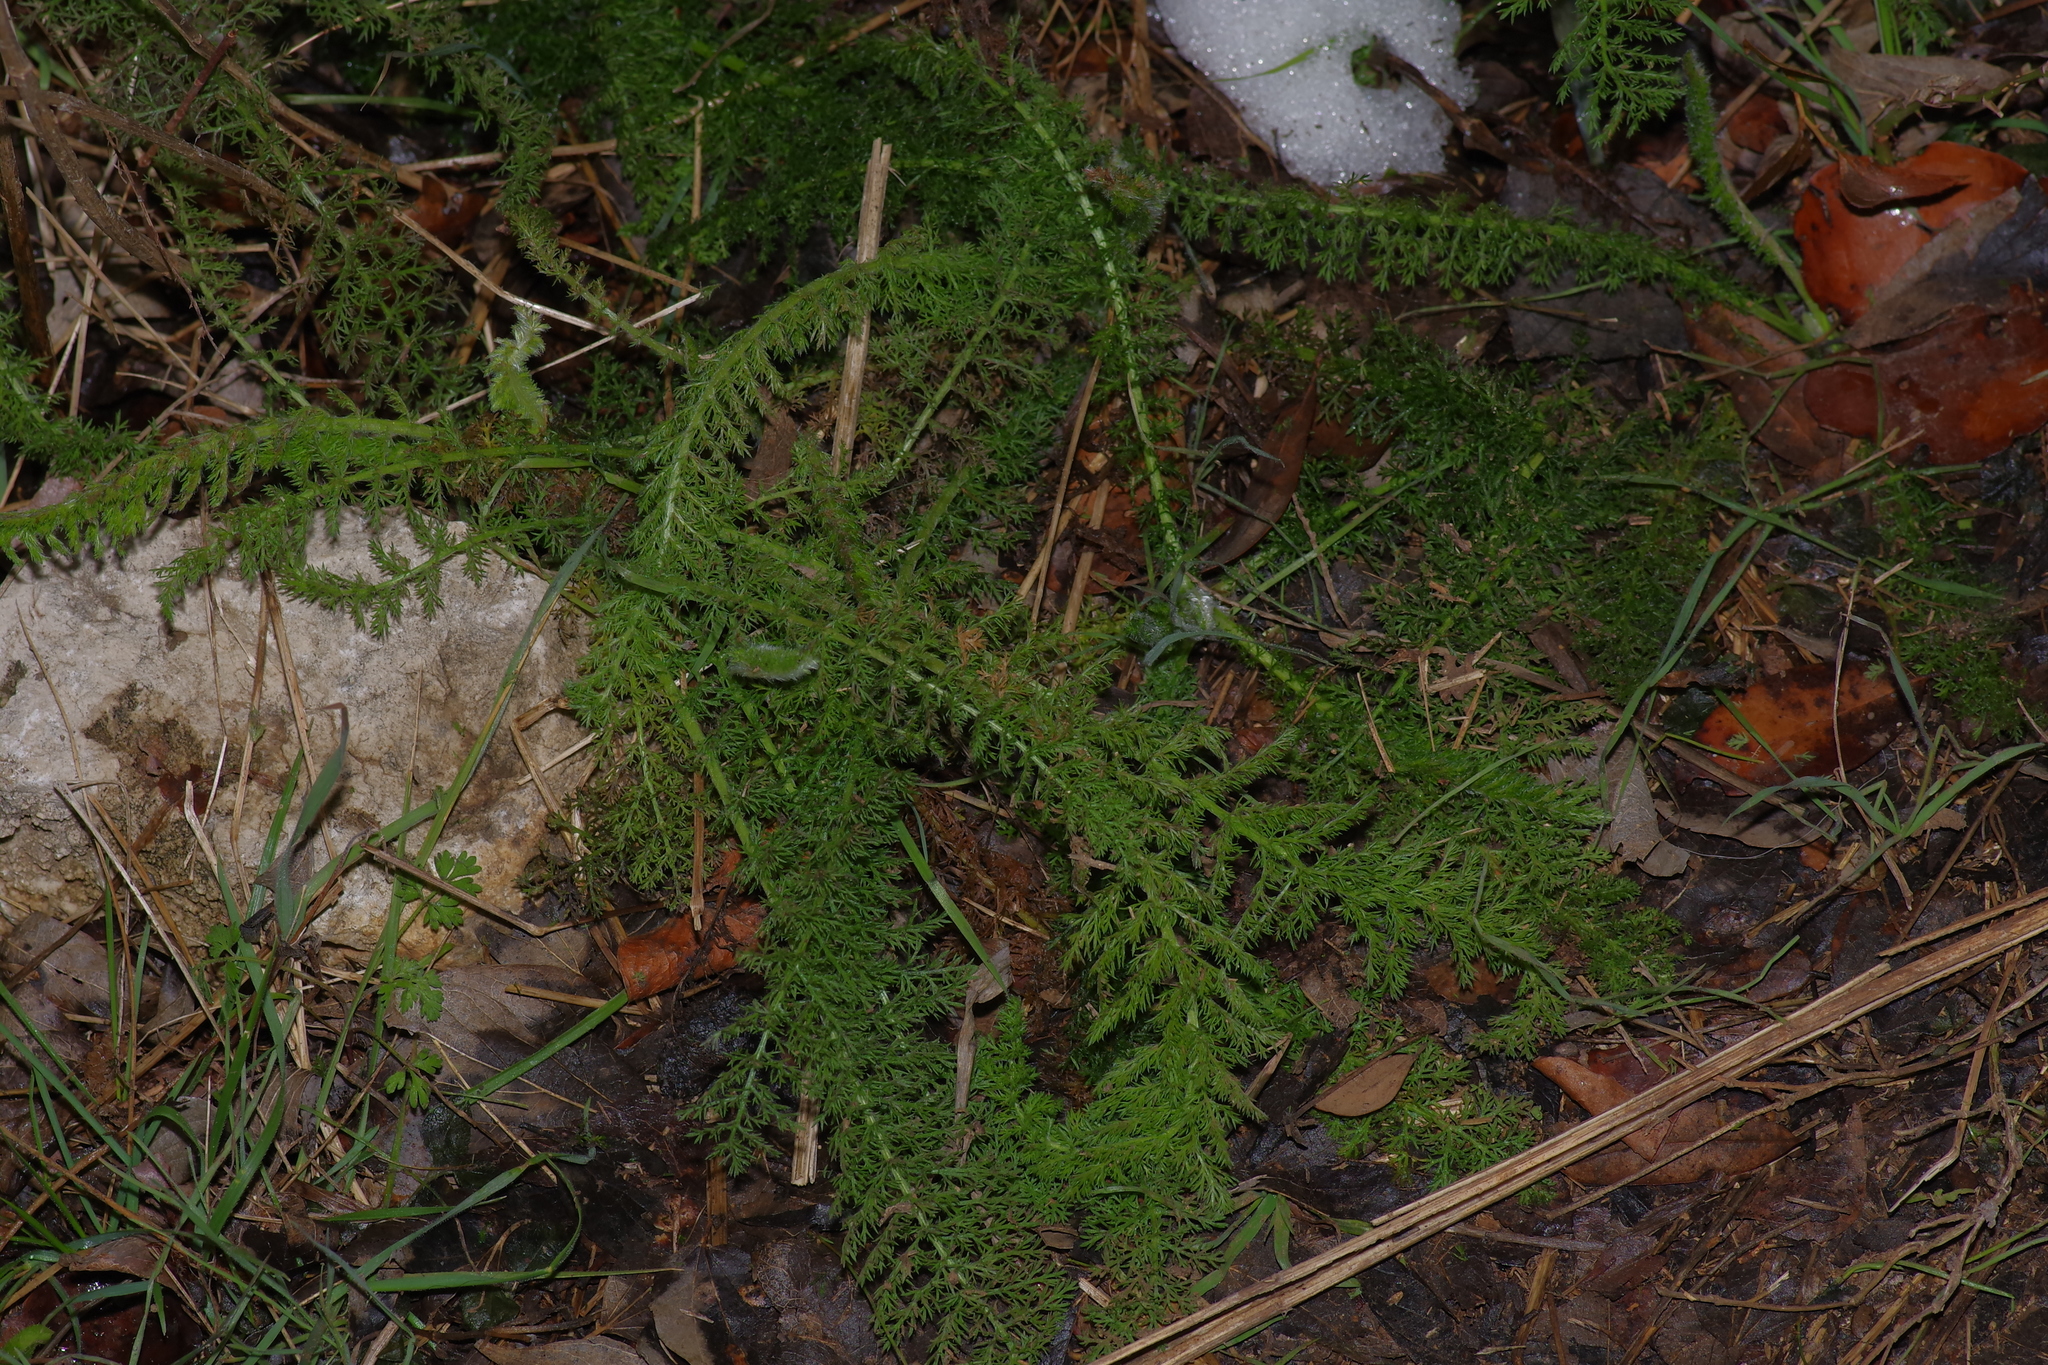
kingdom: Plantae
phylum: Tracheophyta
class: Magnoliopsida
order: Asterales
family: Asteraceae
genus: Achillea
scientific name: Achillea millefolium
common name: Yarrow
